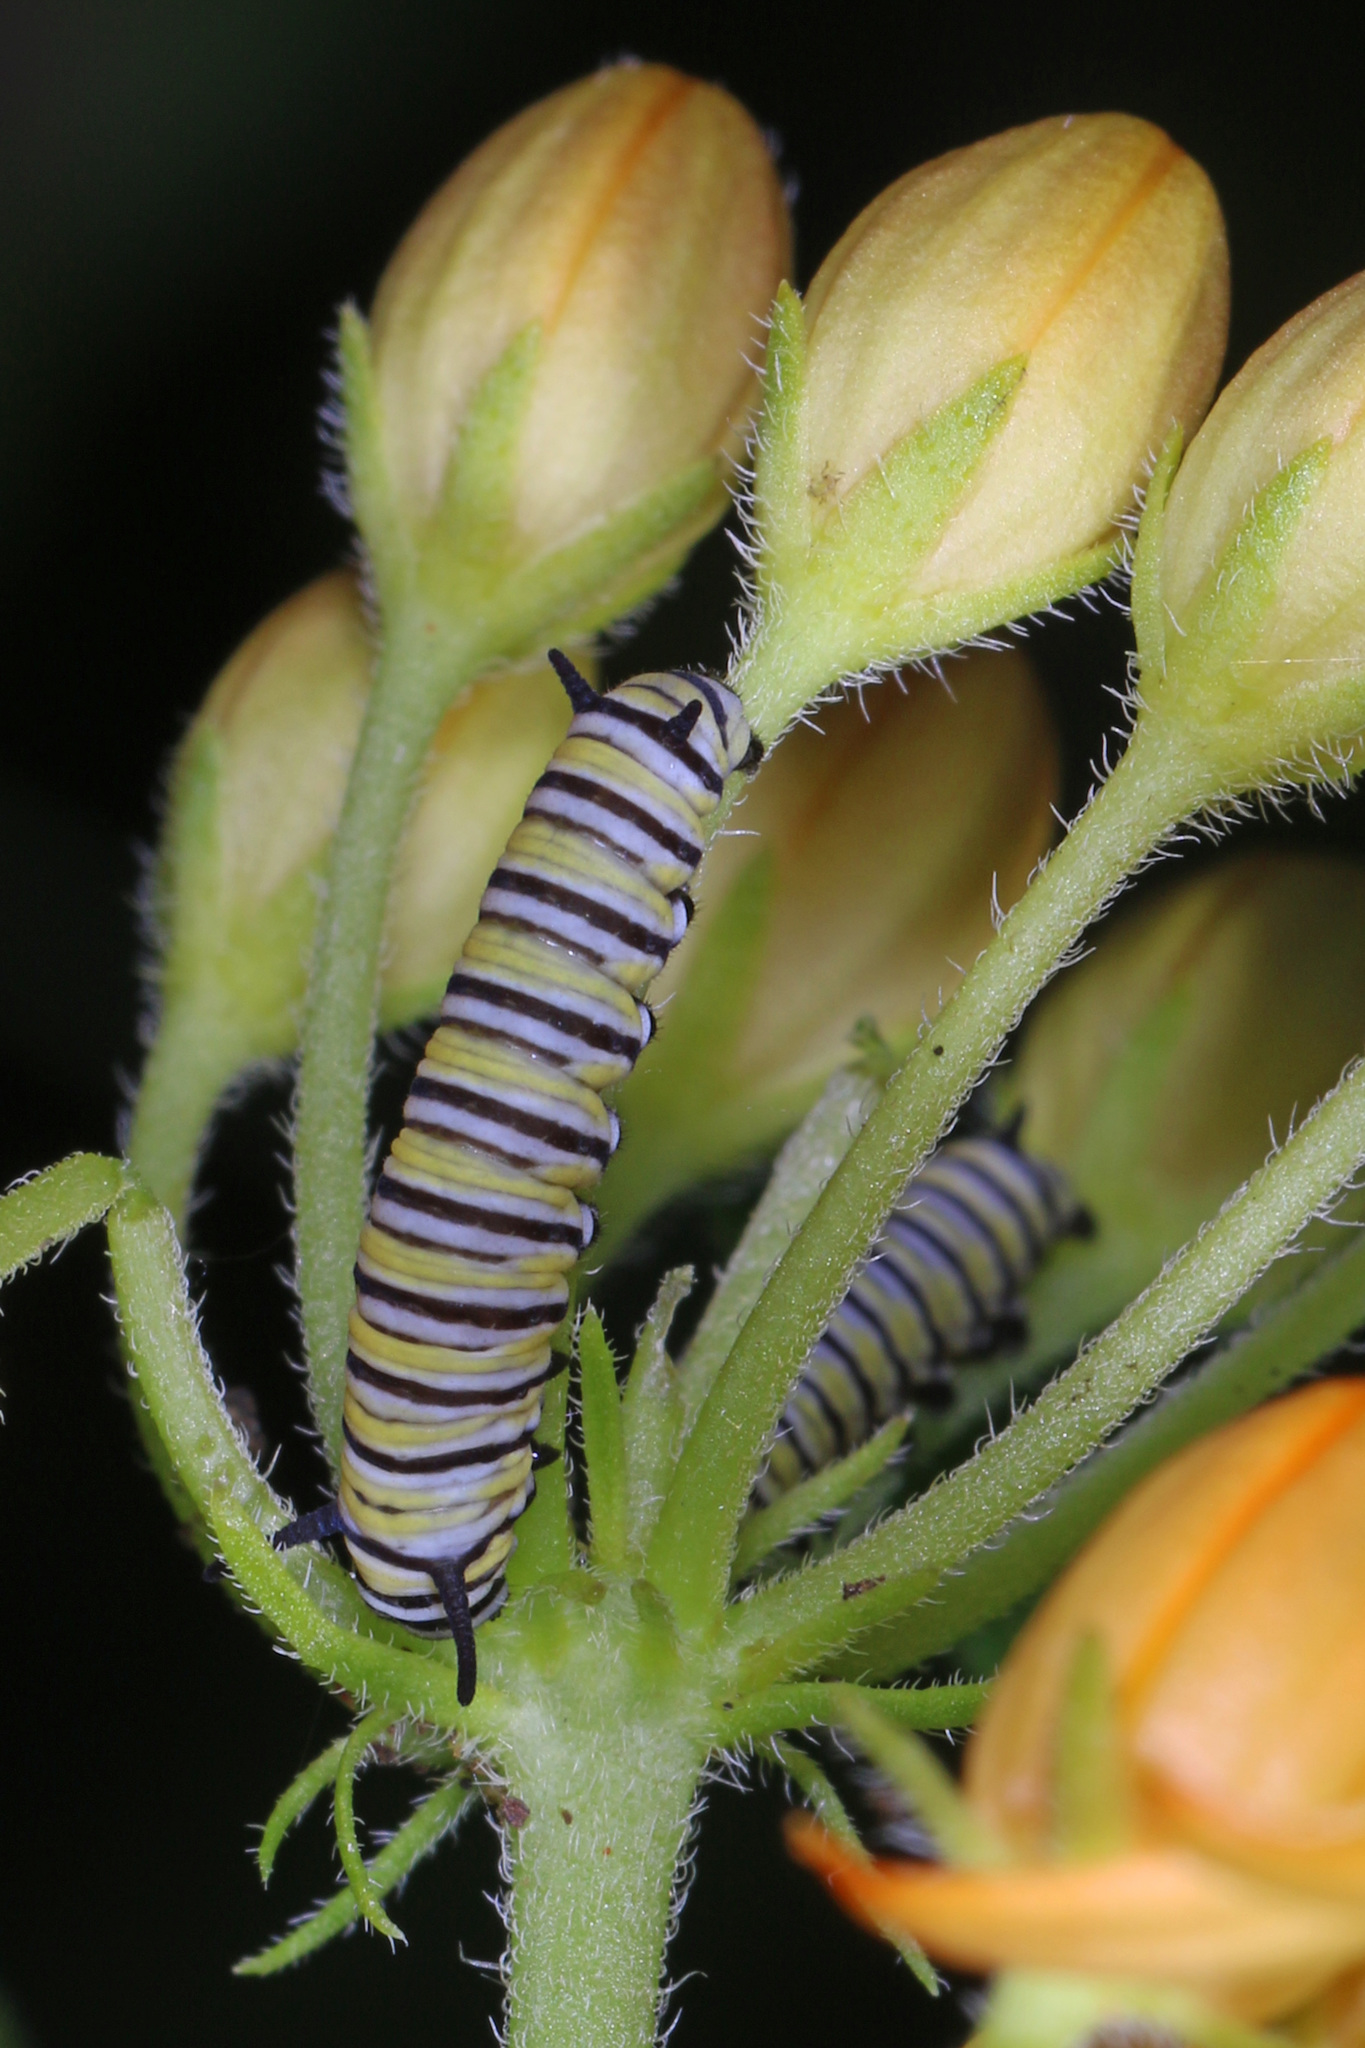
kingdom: Animalia
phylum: Arthropoda
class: Insecta
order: Lepidoptera
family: Nymphalidae
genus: Danaus
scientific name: Danaus plexippus
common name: Monarch
